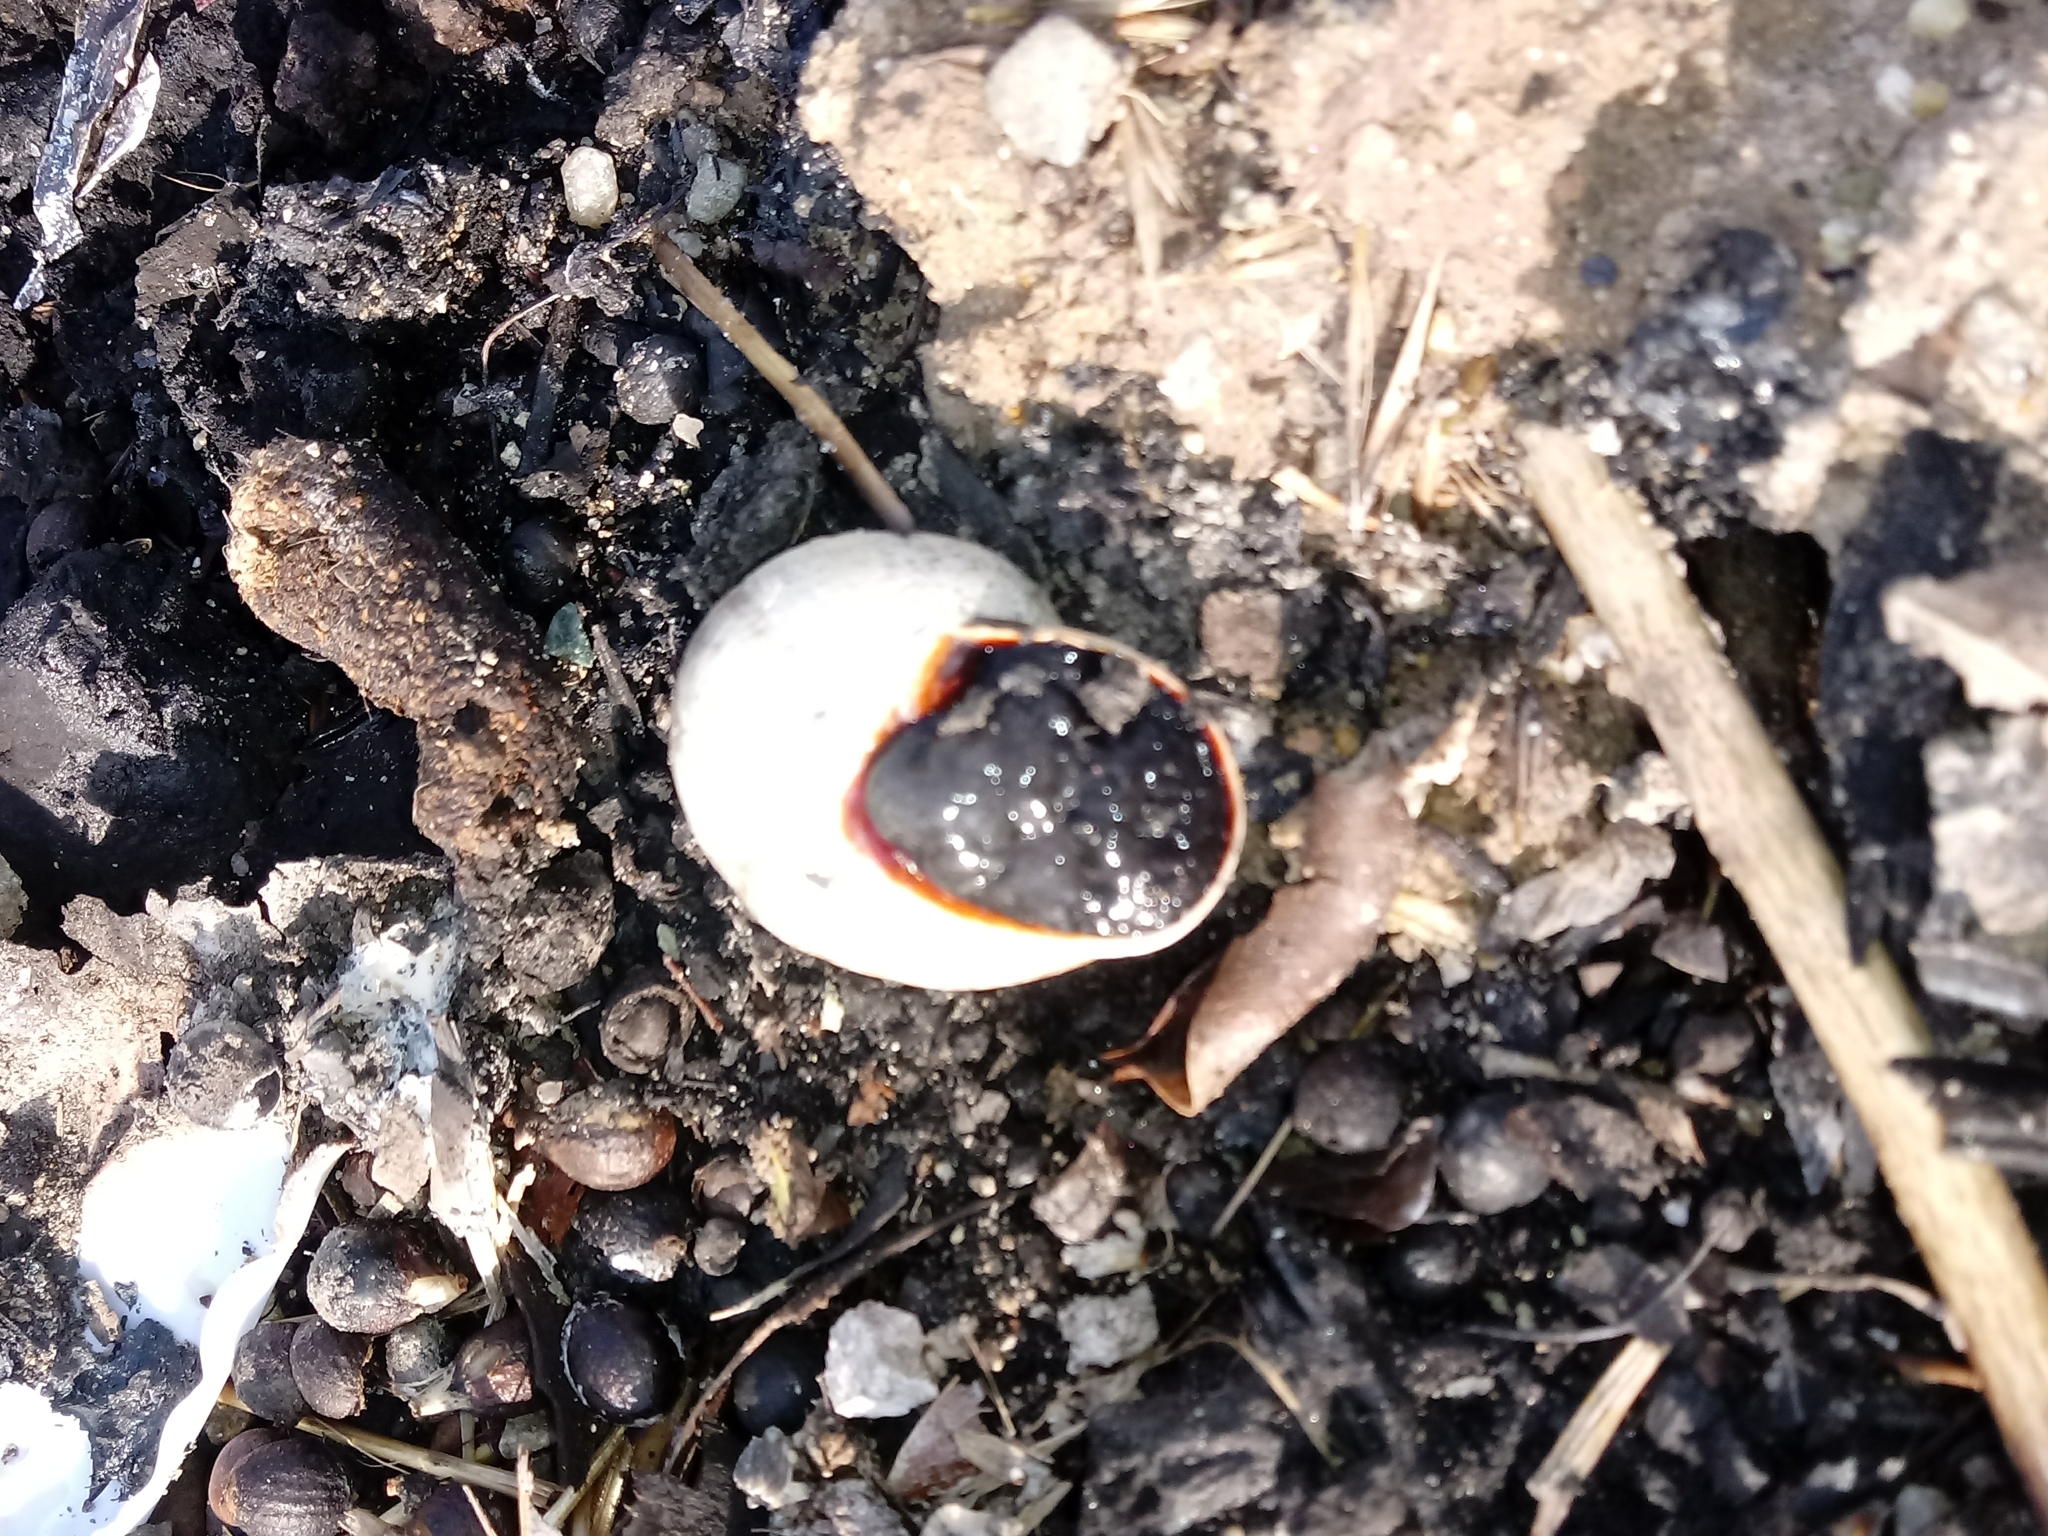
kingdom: Animalia
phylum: Mollusca
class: Gastropoda
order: Stylommatophora
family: Helicidae
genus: Otala
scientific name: Otala lactea
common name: Milk snail
